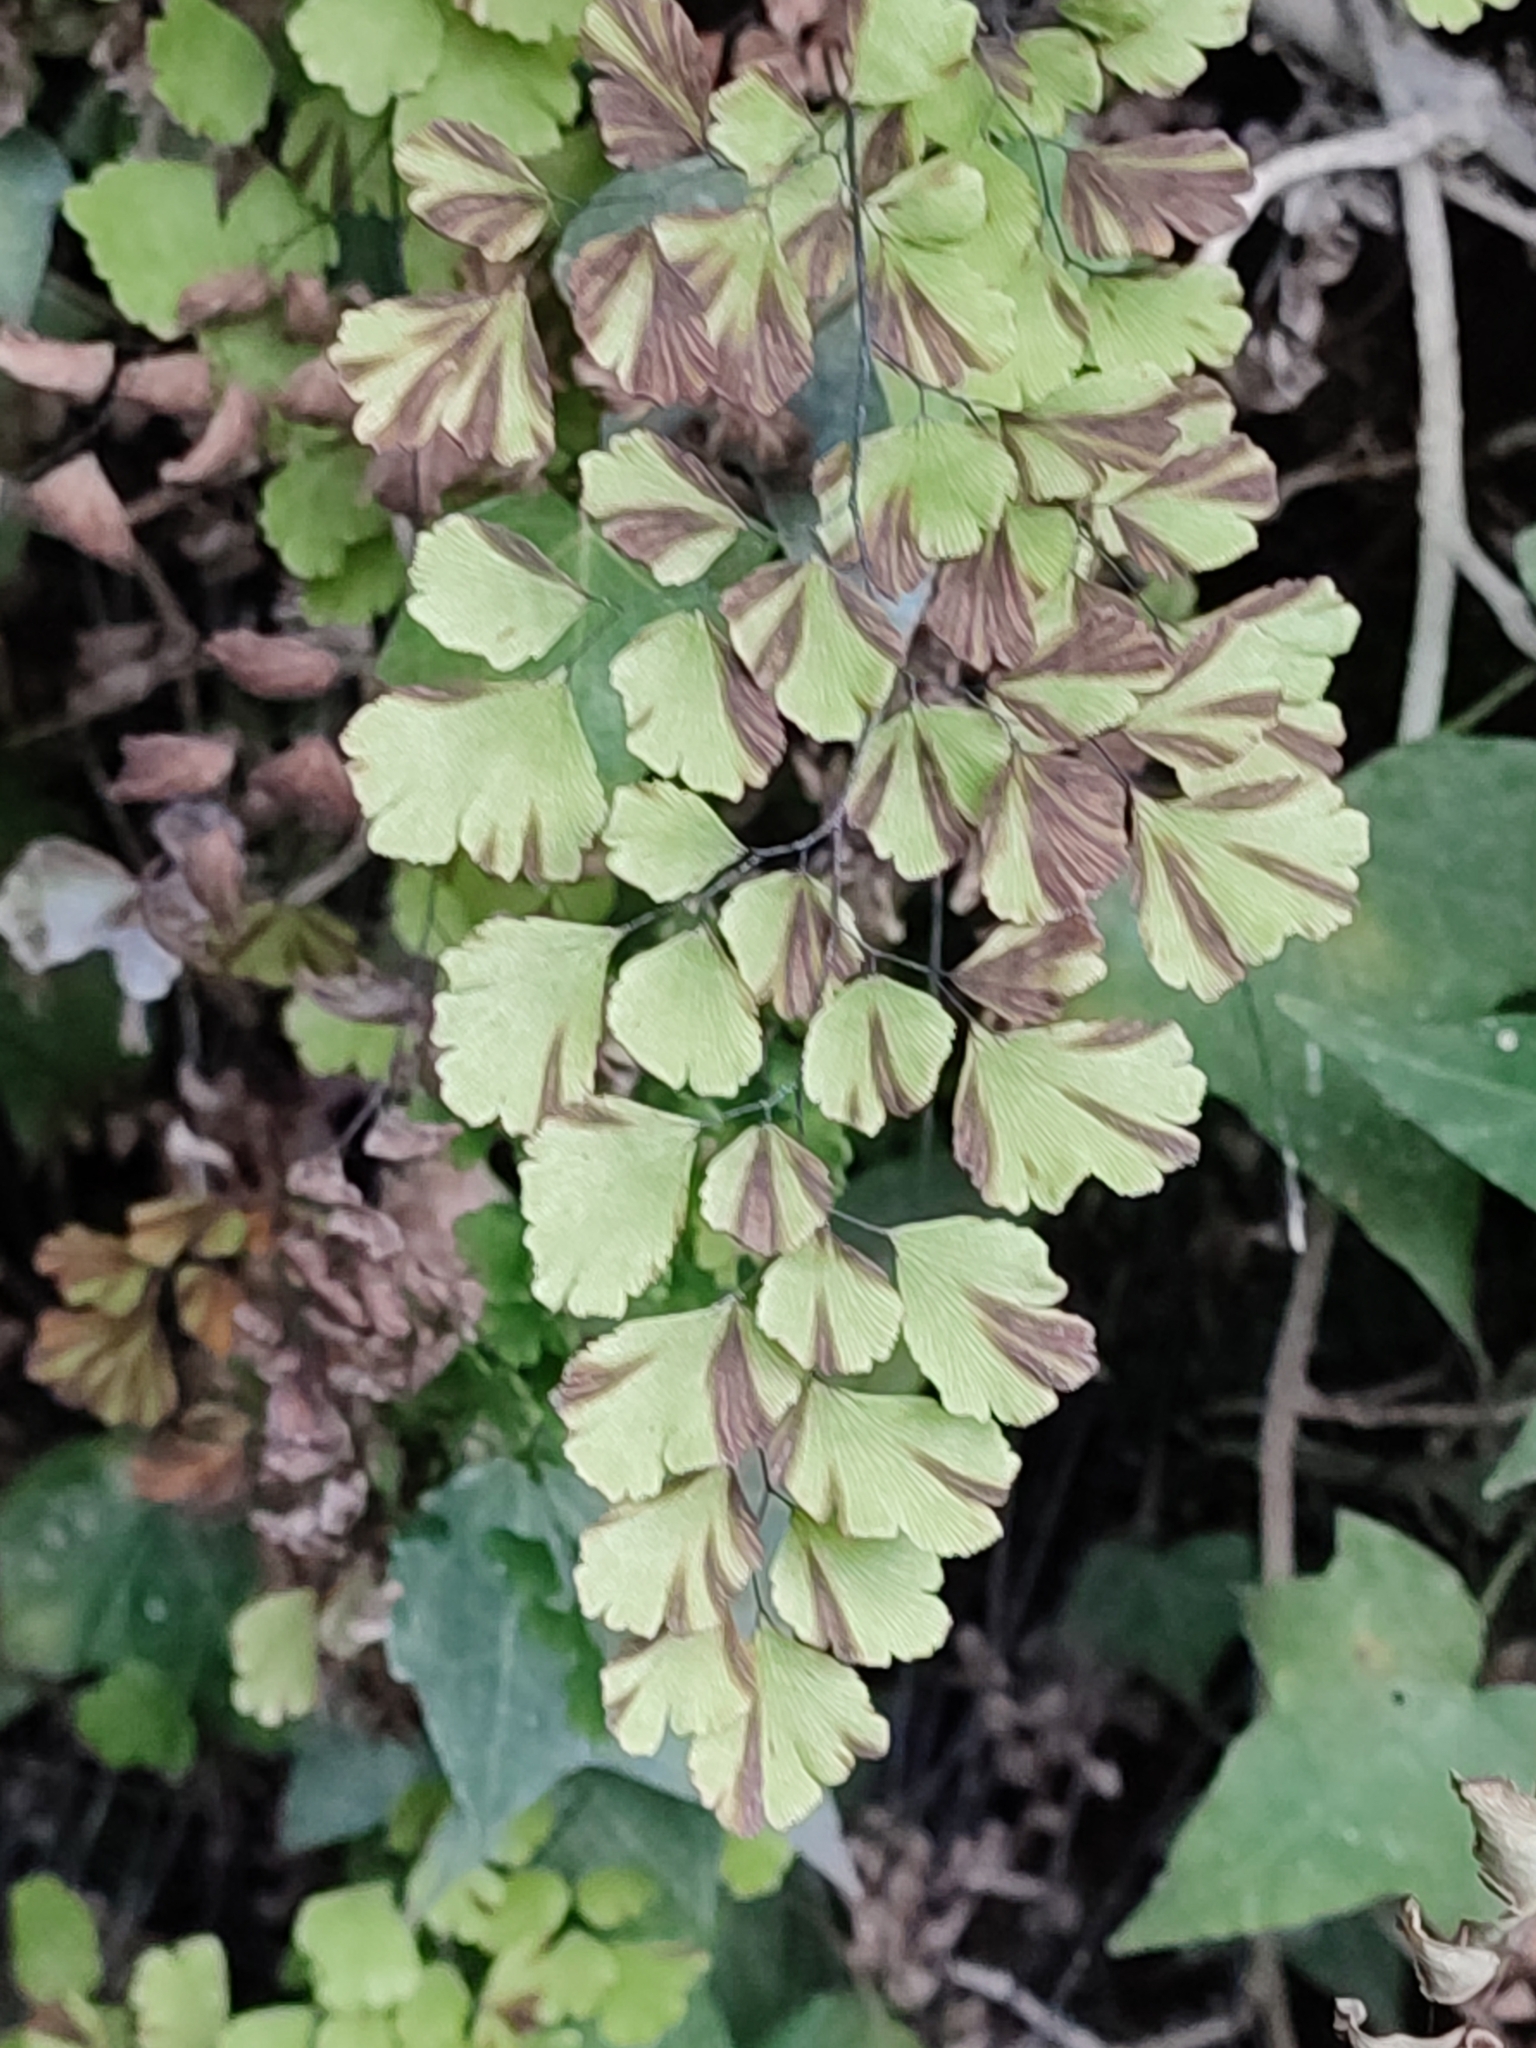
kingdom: Plantae
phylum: Tracheophyta
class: Polypodiopsida
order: Polypodiales
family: Pteridaceae
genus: Adiantum
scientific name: Adiantum capillus-veneris
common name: Maidenhair fern
